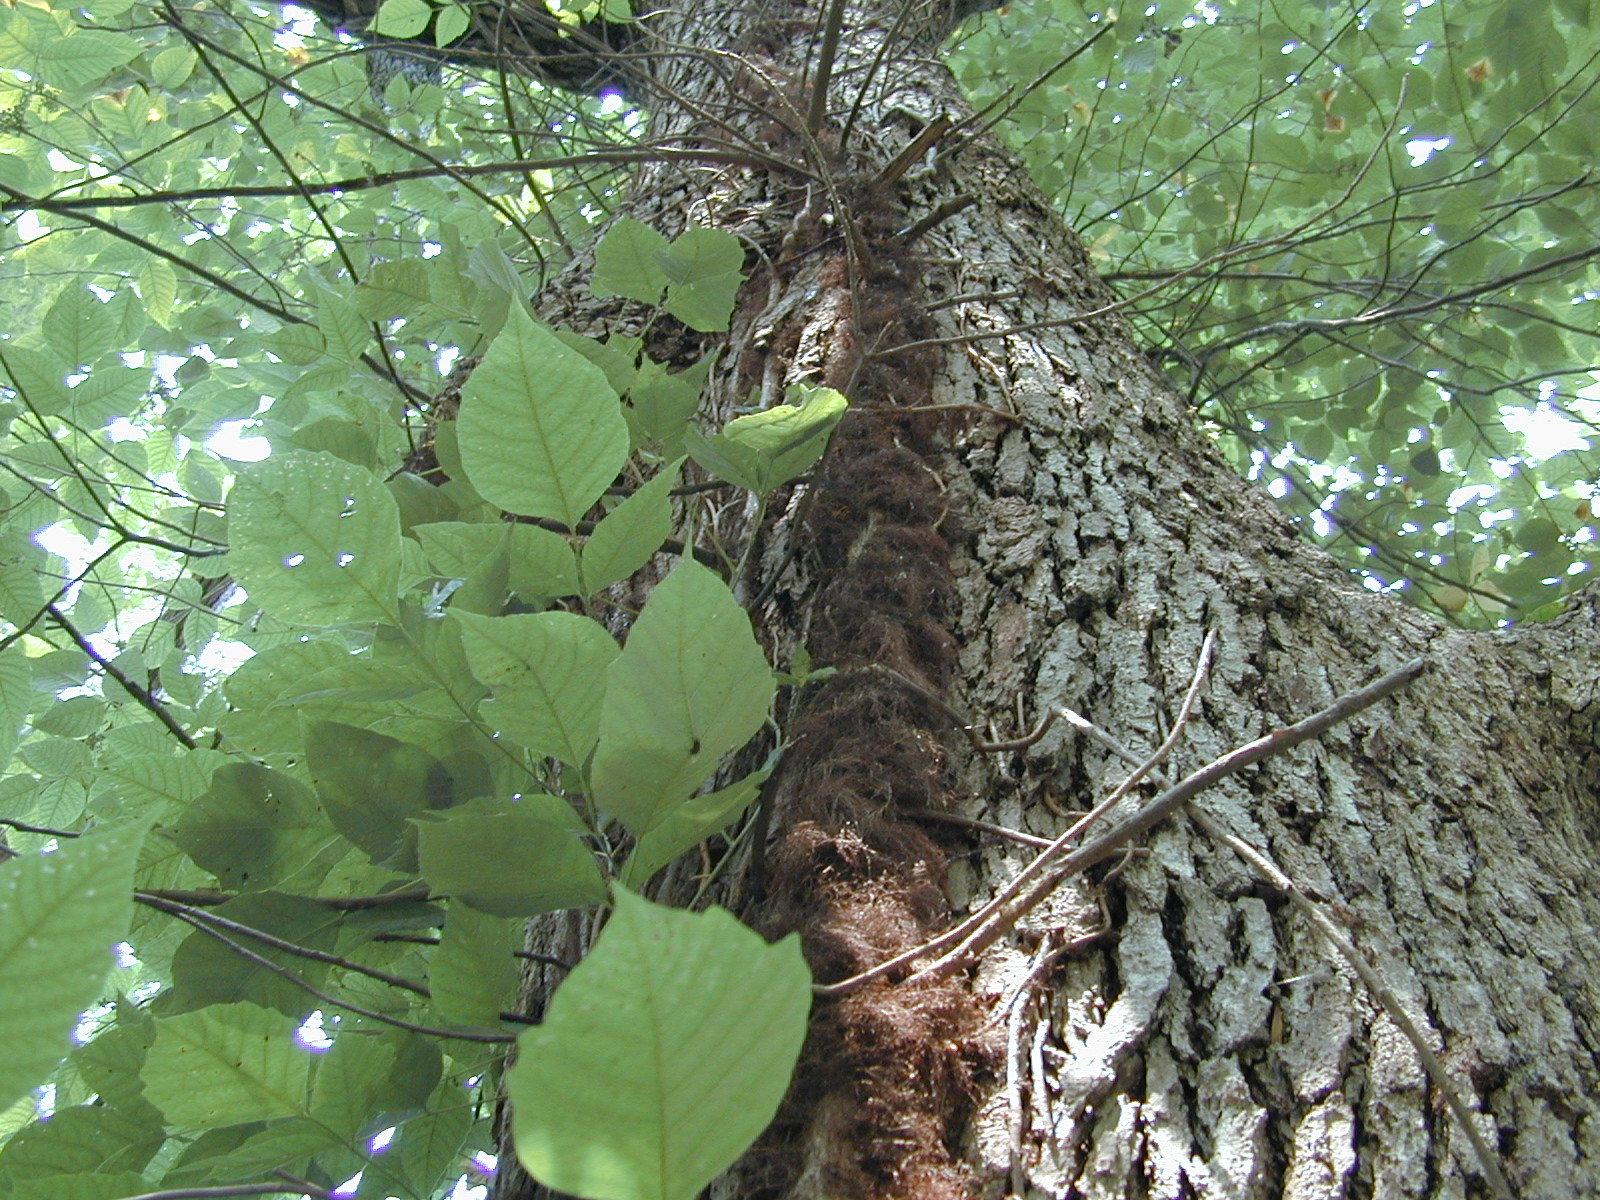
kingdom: Plantae
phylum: Tracheophyta
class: Magnoliopsida
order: Sapindales
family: Anacardiaceae
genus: Toxicodendron
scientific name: Toxicodendron radicans
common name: Poison ivy
